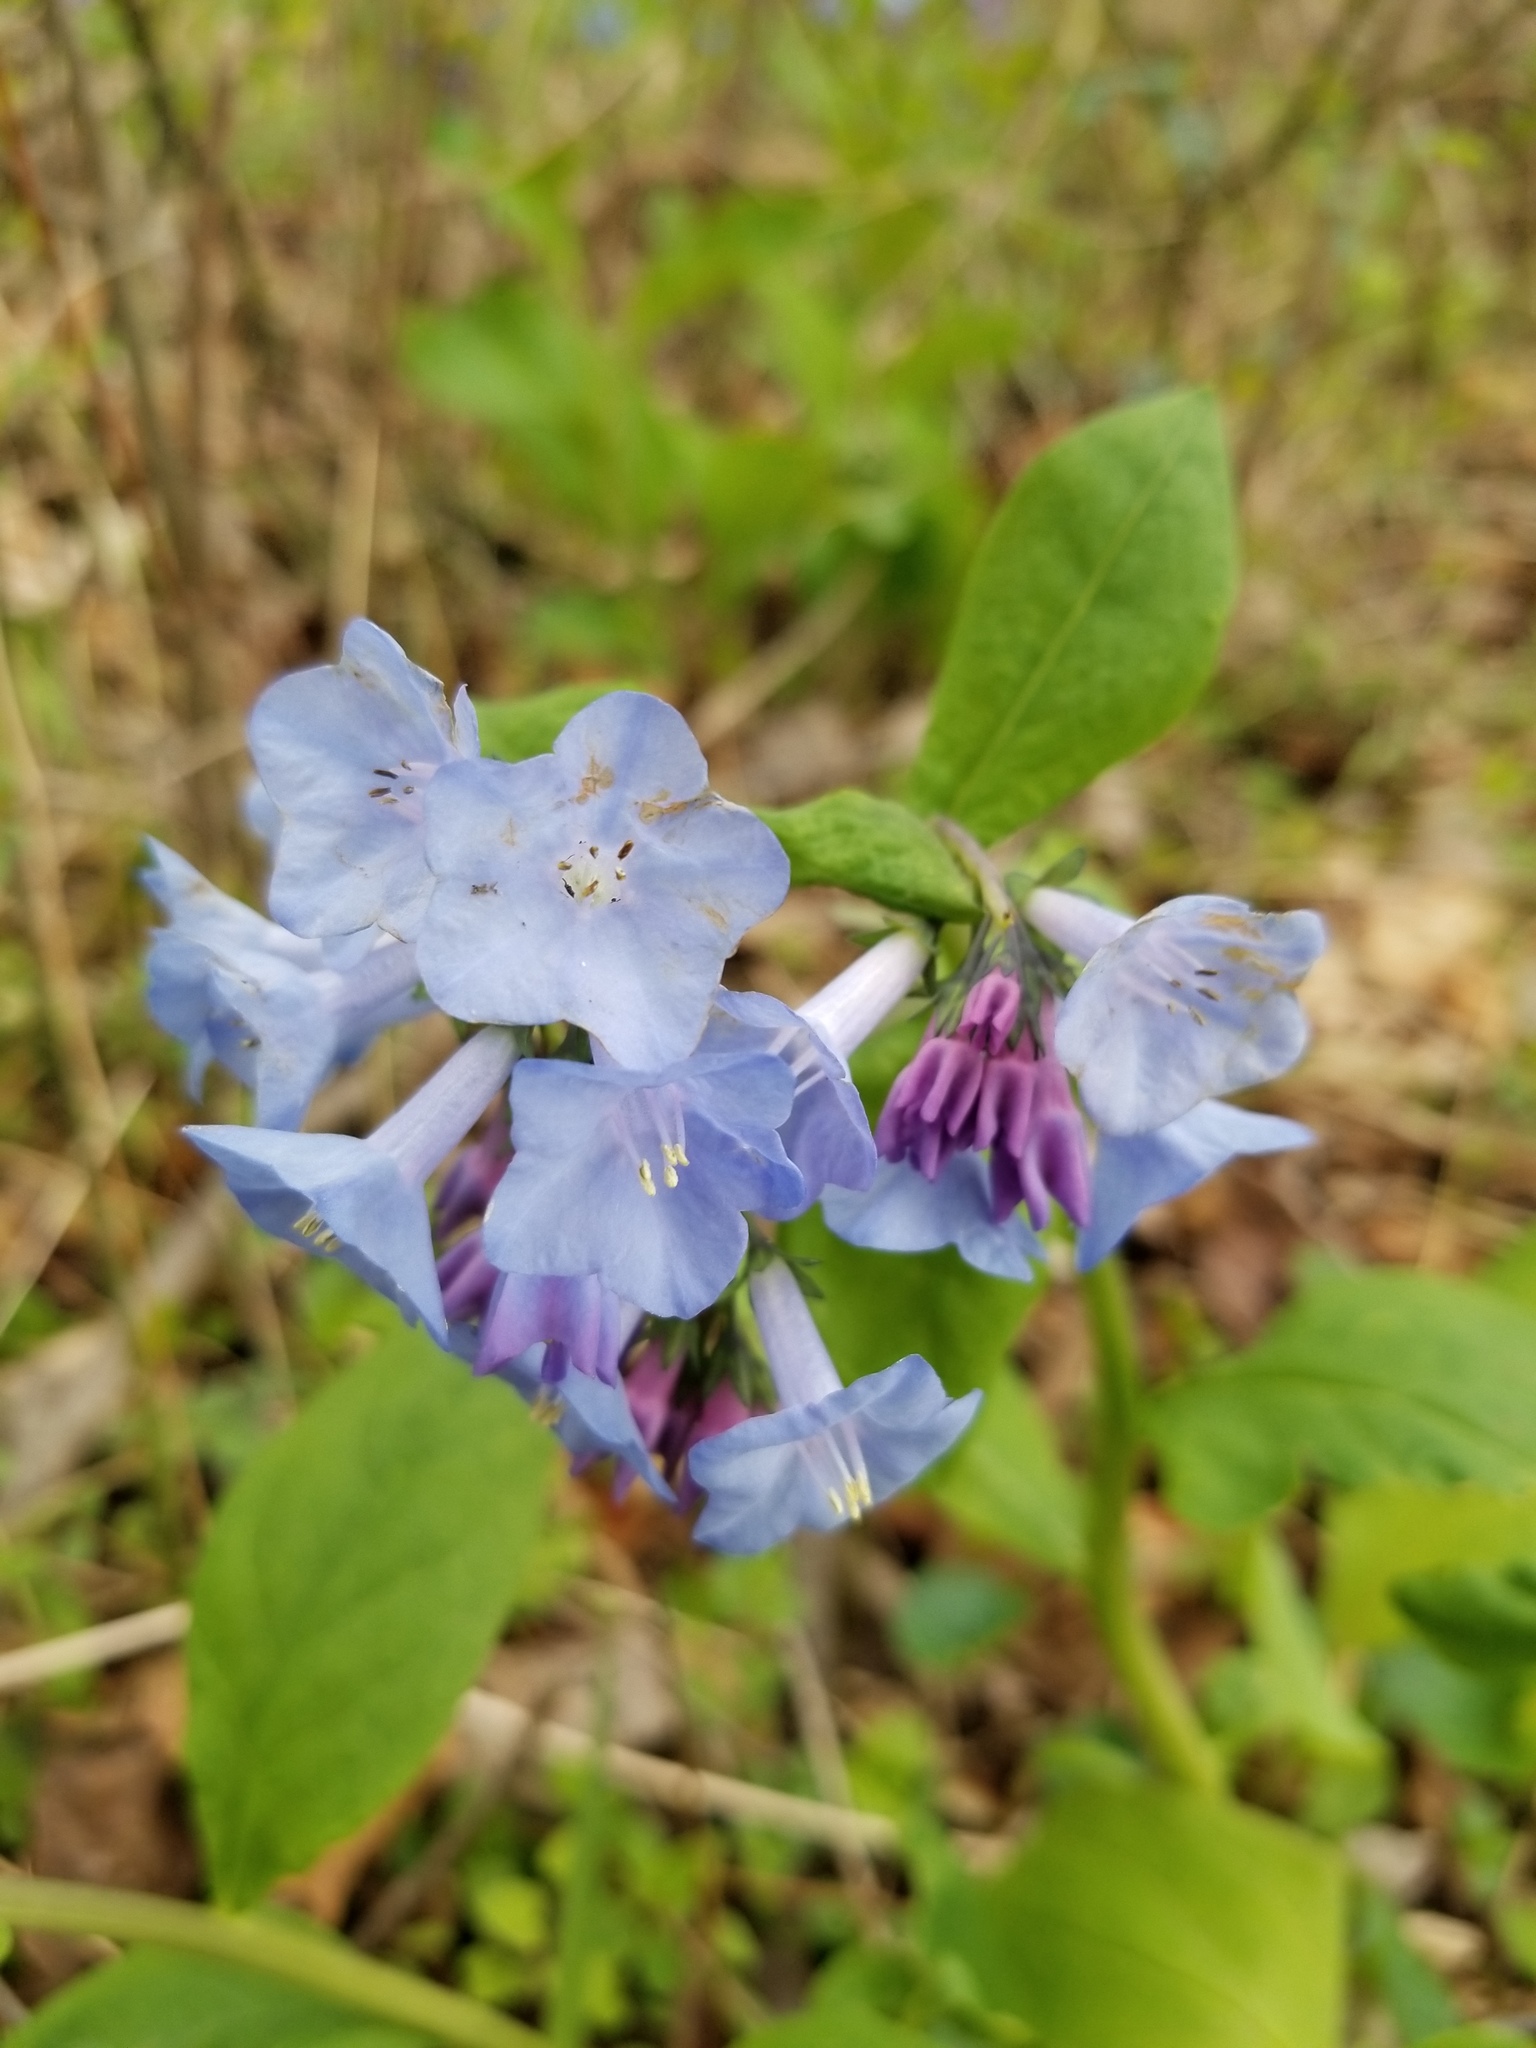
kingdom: Plantae
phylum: Tracheophyta
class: Magnoliopsida
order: Boraginales
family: Boraginaceae
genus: Mertensia
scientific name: Mertensia virginica
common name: Virginia bluebells
